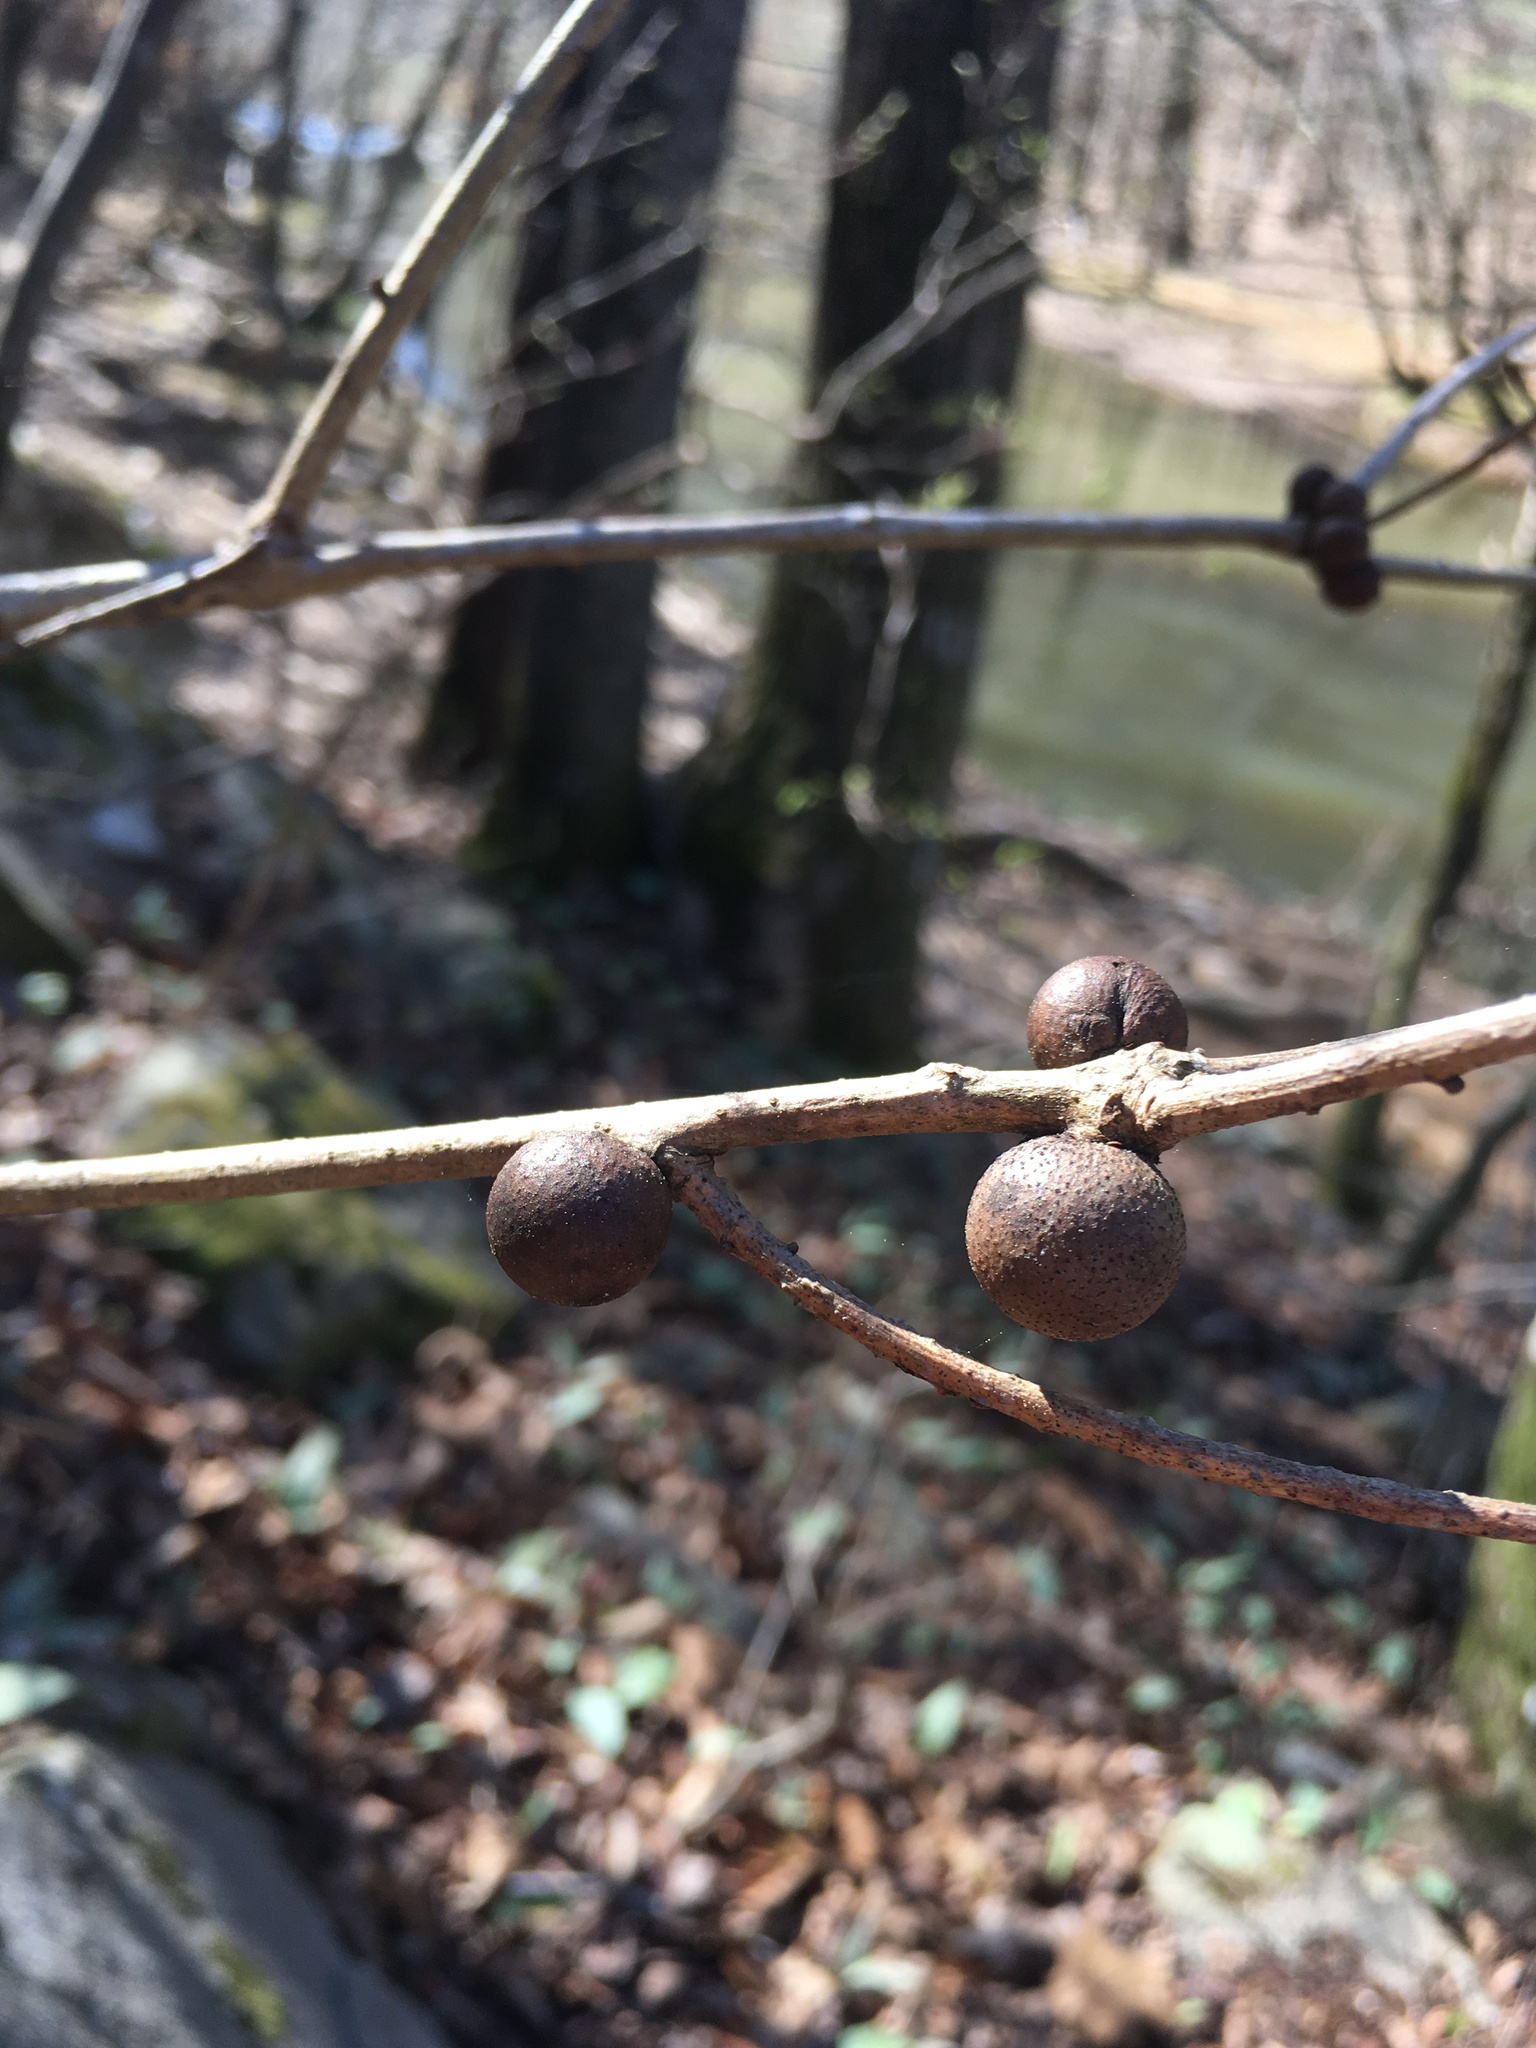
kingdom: Animalia
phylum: Arthropoda
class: Insecta
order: Hymenoptera
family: Cynipidae
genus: Disholcaspis
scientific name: Disholcaspis quercusglobulus
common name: Round bullet gall wasp
